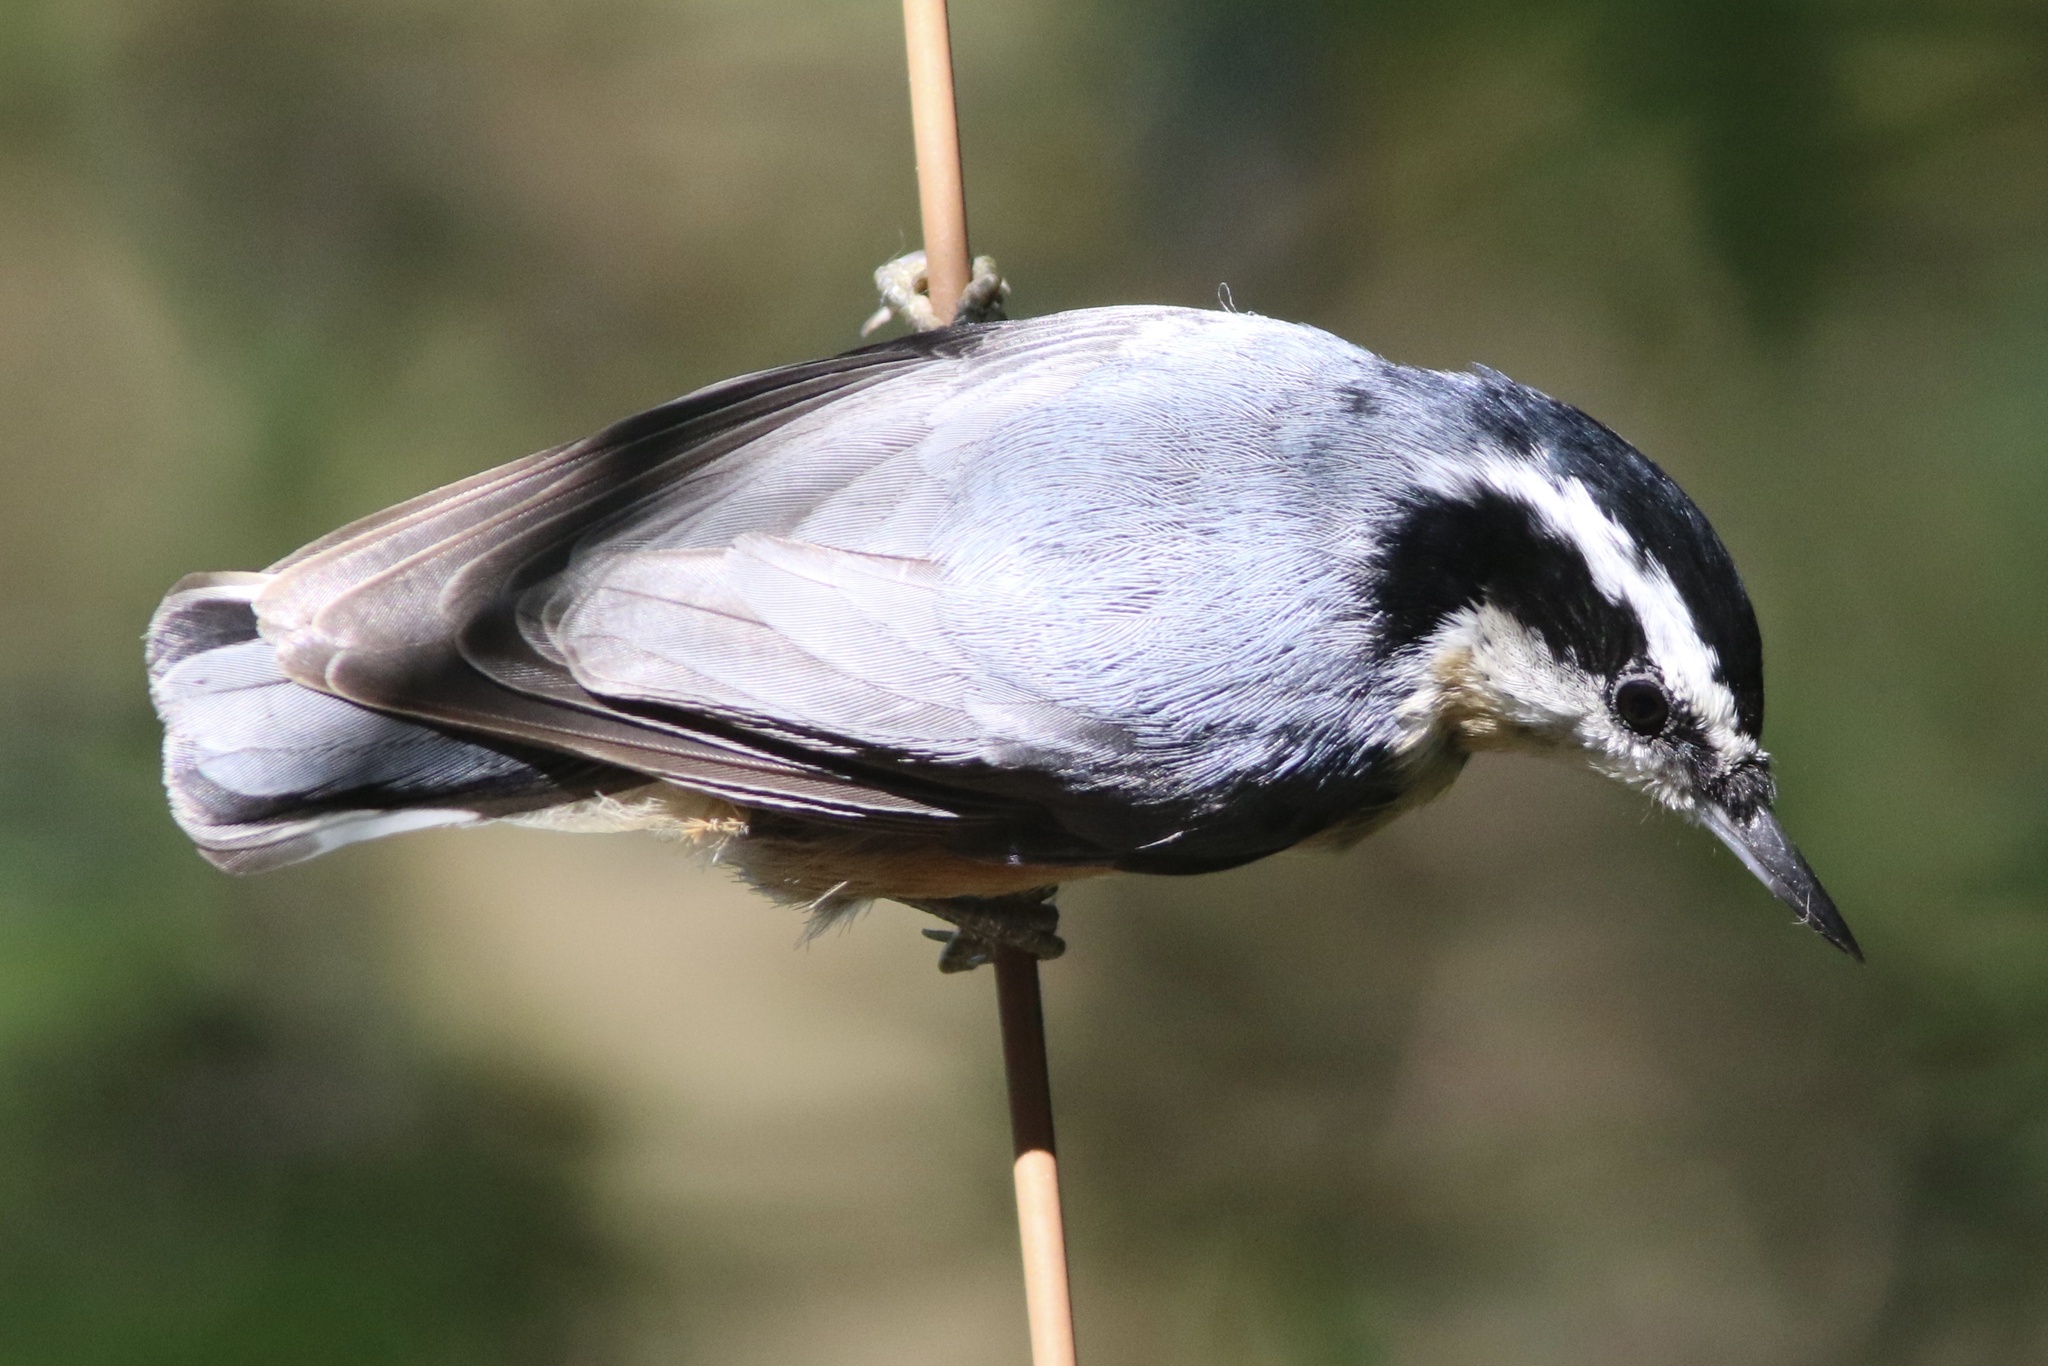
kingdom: Animalia
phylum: Chordata
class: Aves
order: Passeriformes
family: Sittidae
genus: Sitta
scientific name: Sitta canadensis
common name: Red-breasted nuthatch
